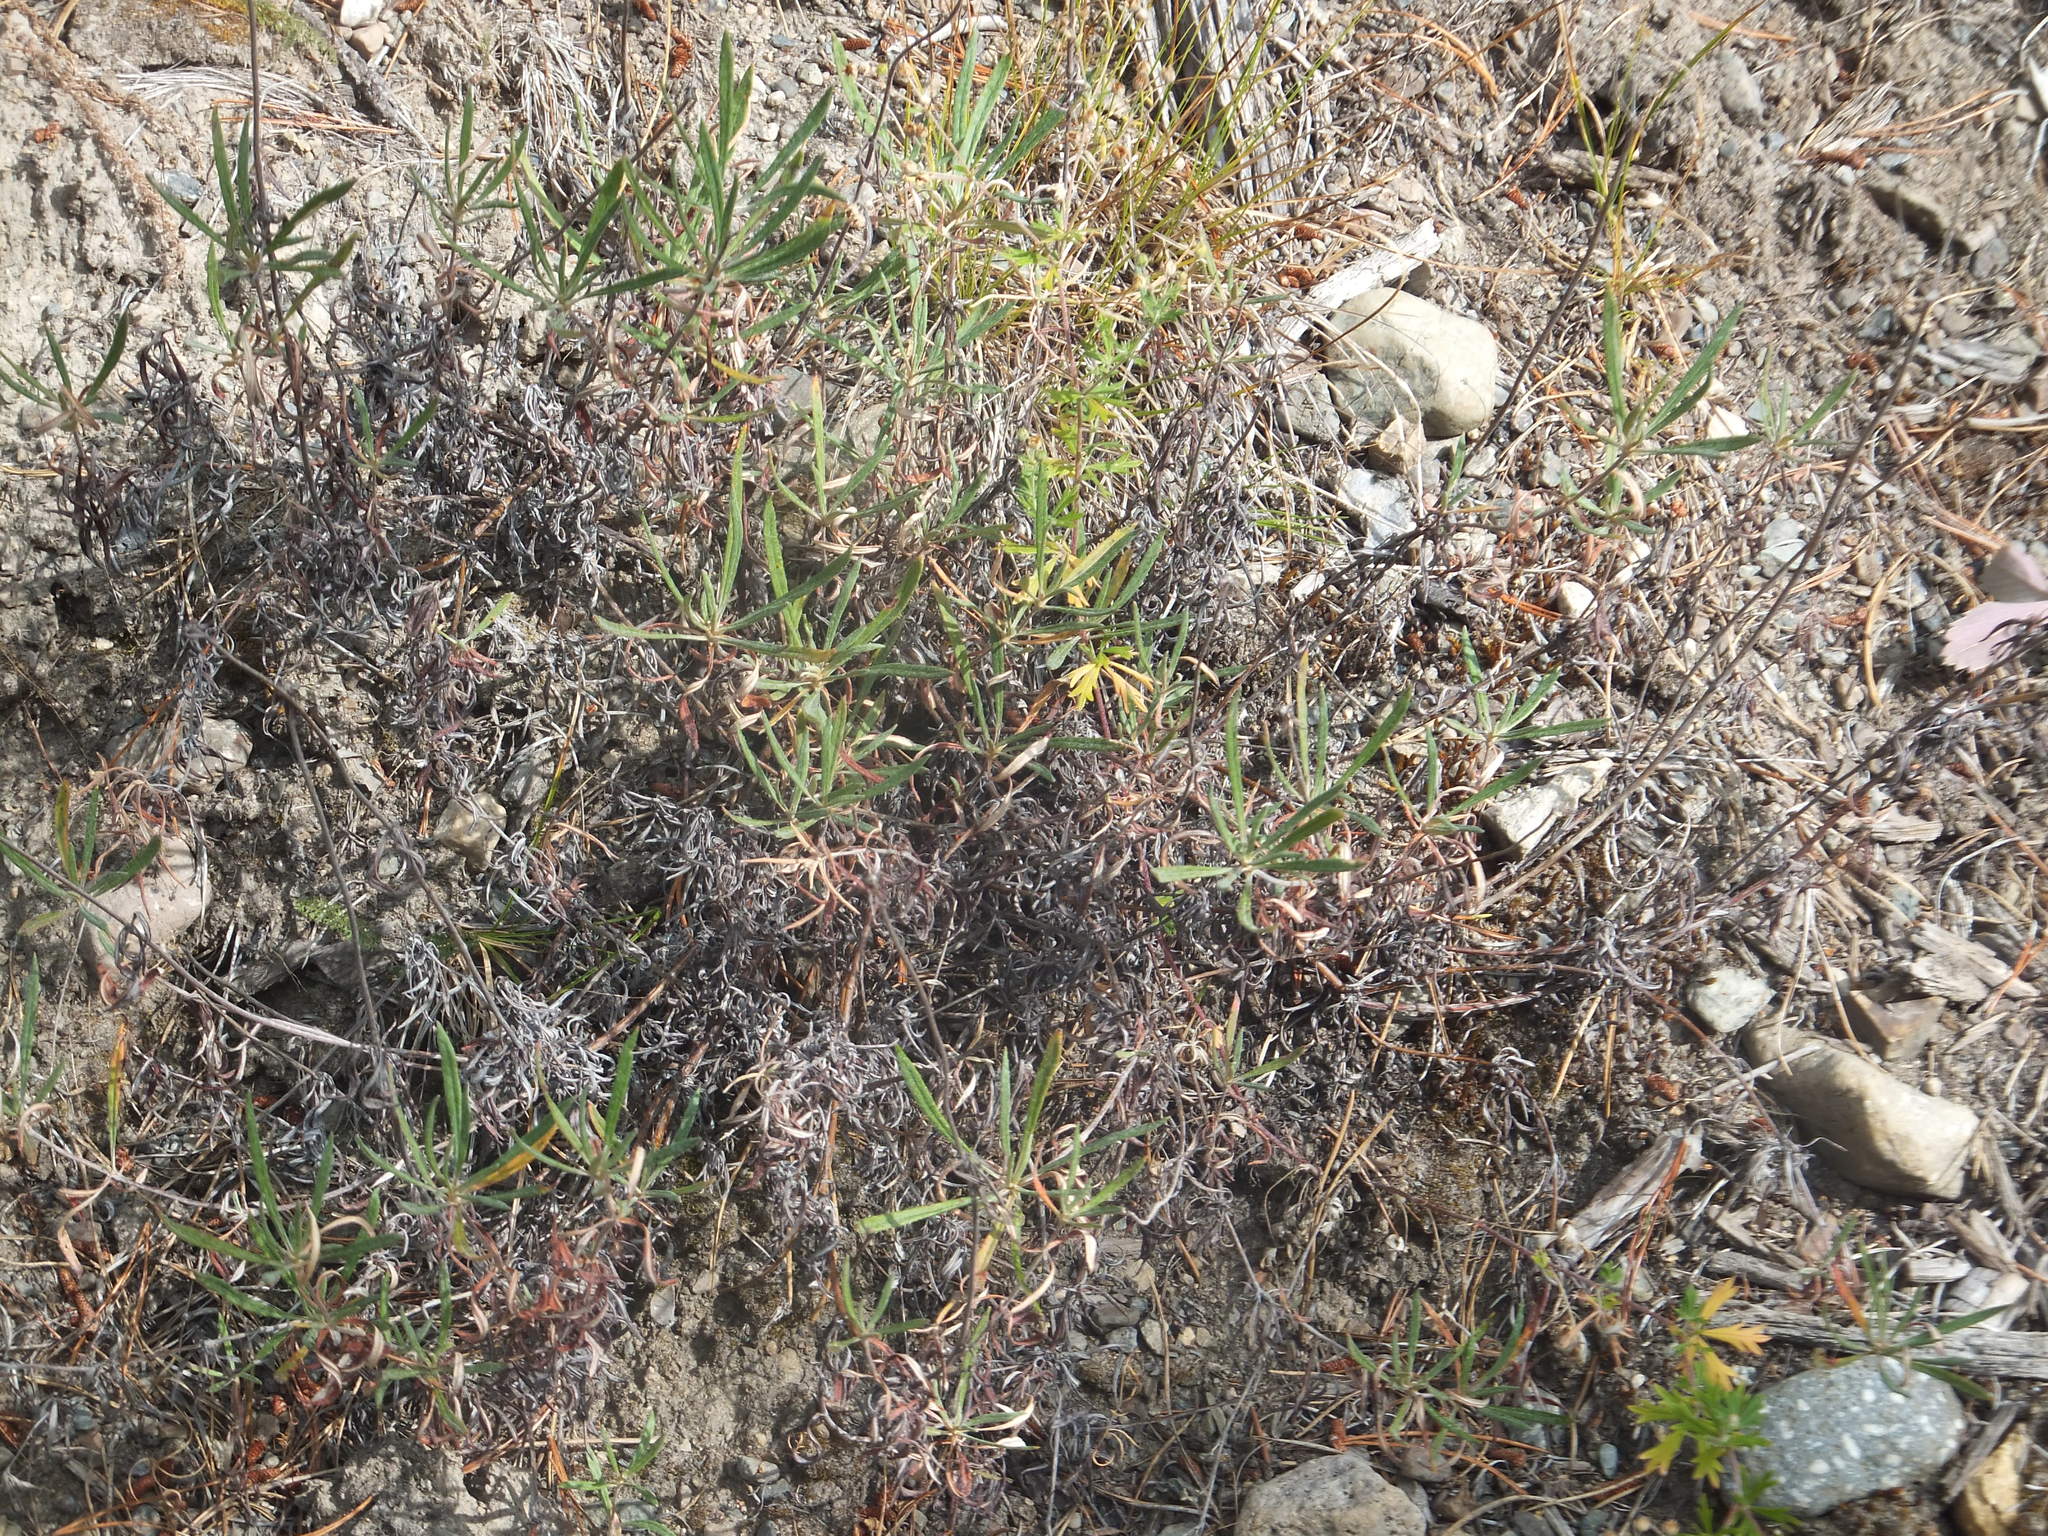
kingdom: Plantae
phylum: Tracheophyta
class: Magnoliopsida
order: Caryophyllales
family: Polygonaceae
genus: Eriogonum
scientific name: Eriogonum heracleoides
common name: Wyeth's buckwheat
